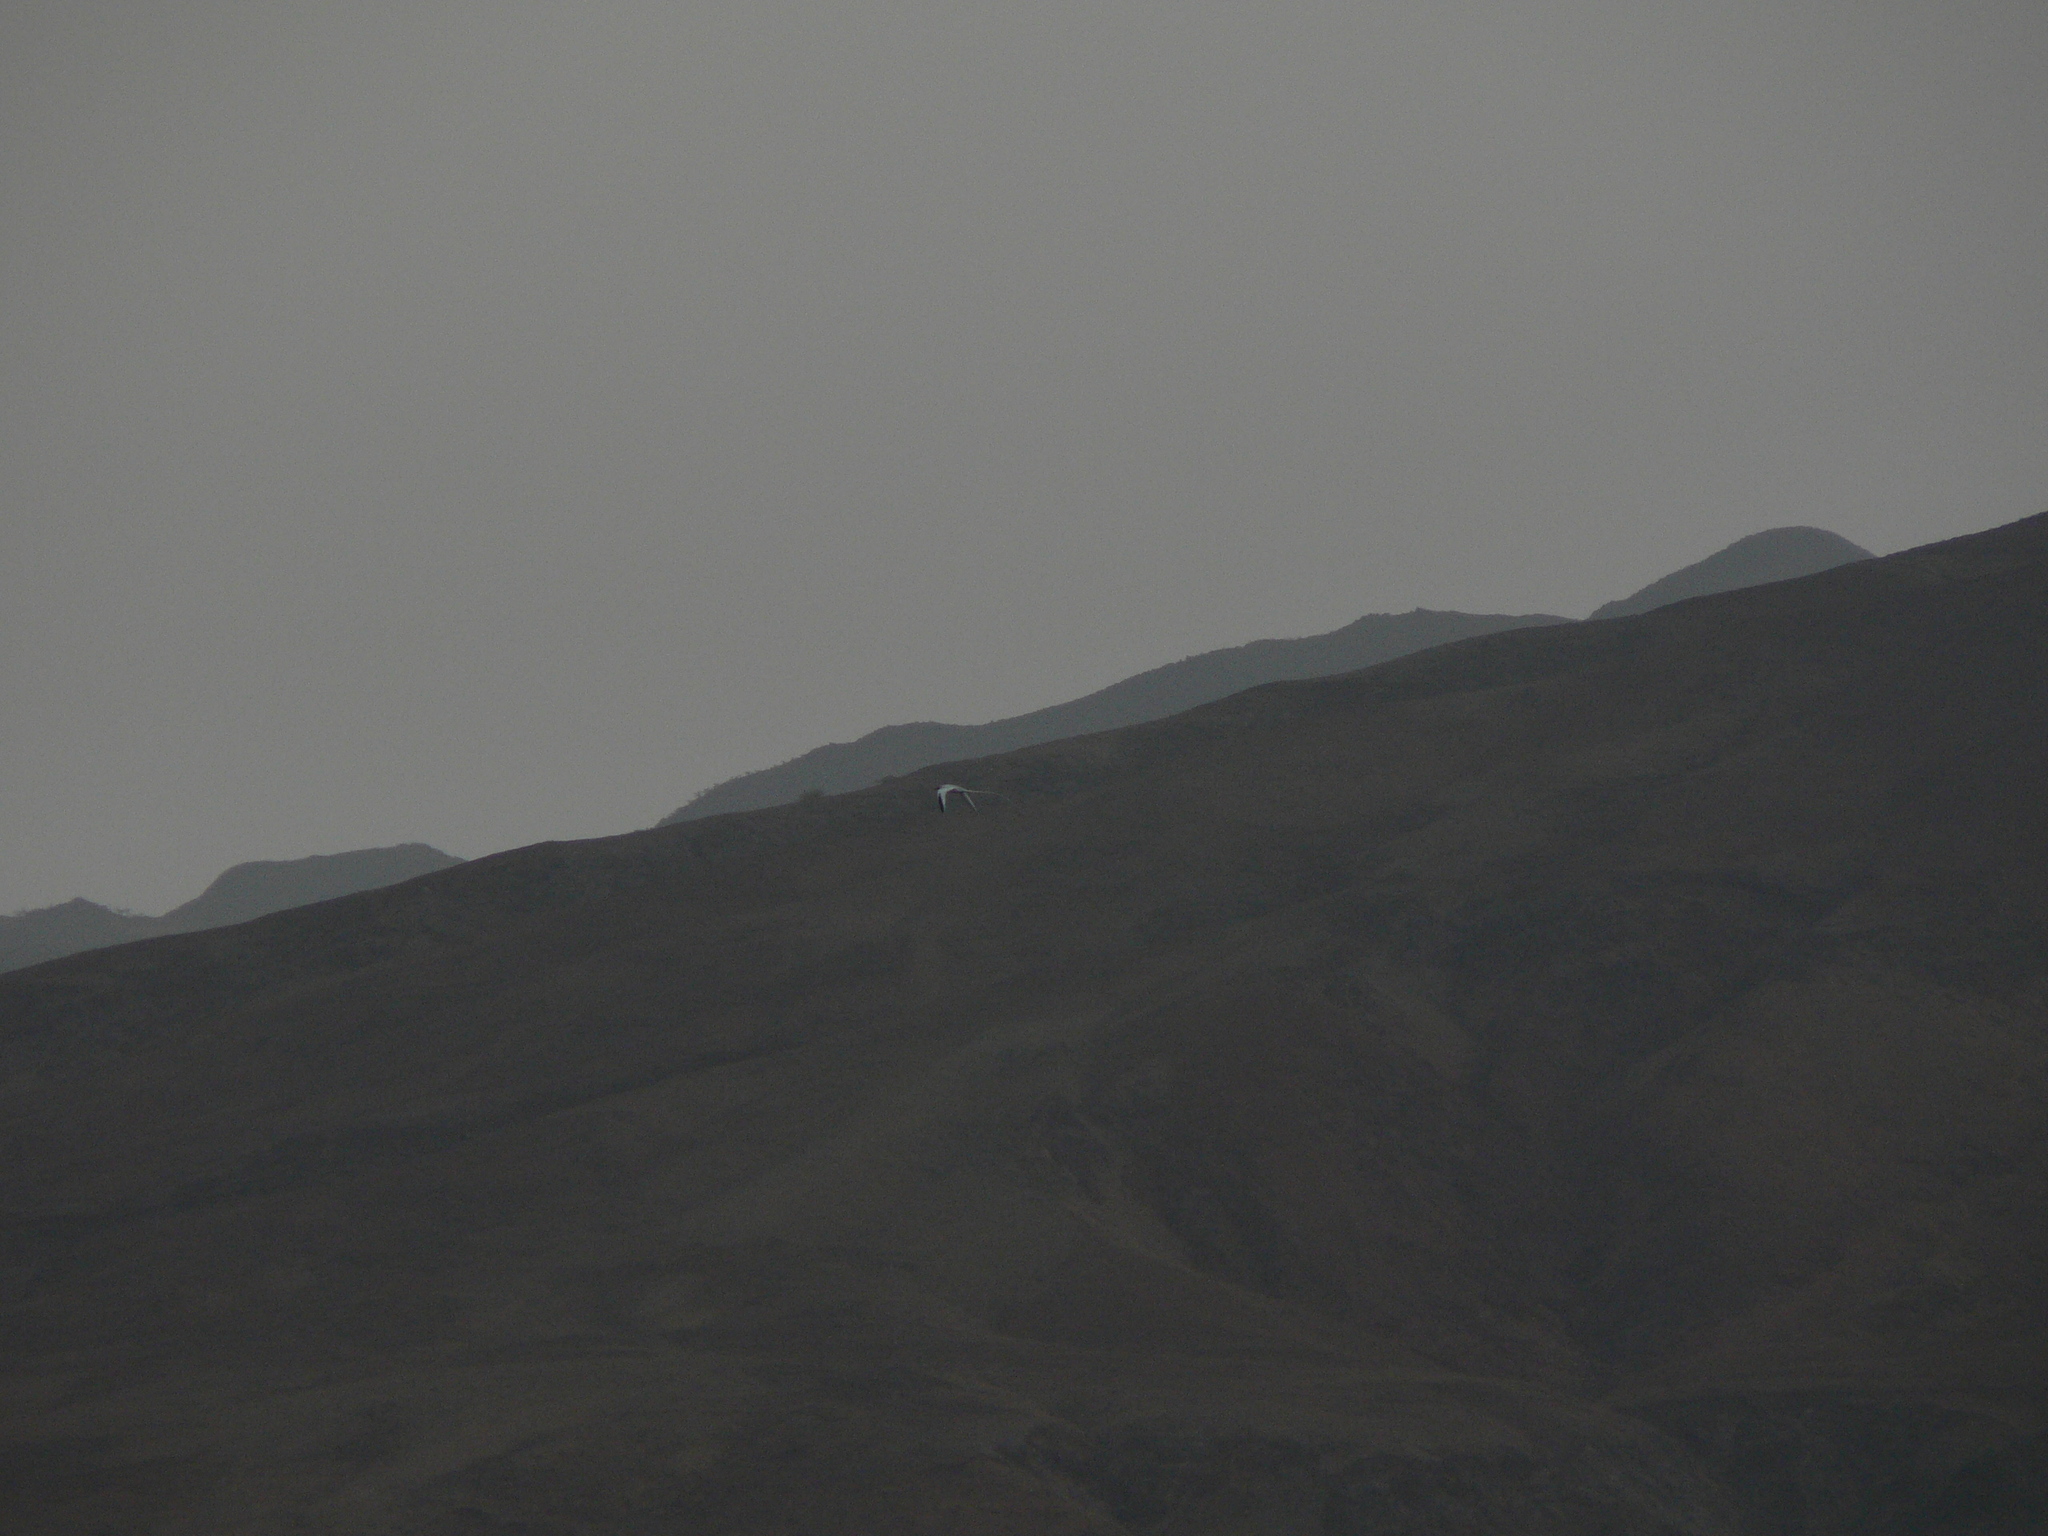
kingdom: Animalia
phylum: Chordata
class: Aves
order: Phaethontiformes
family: Phaethontidae
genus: Phaethon
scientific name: Phaethon aethereus
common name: Red-billed tropicbird
